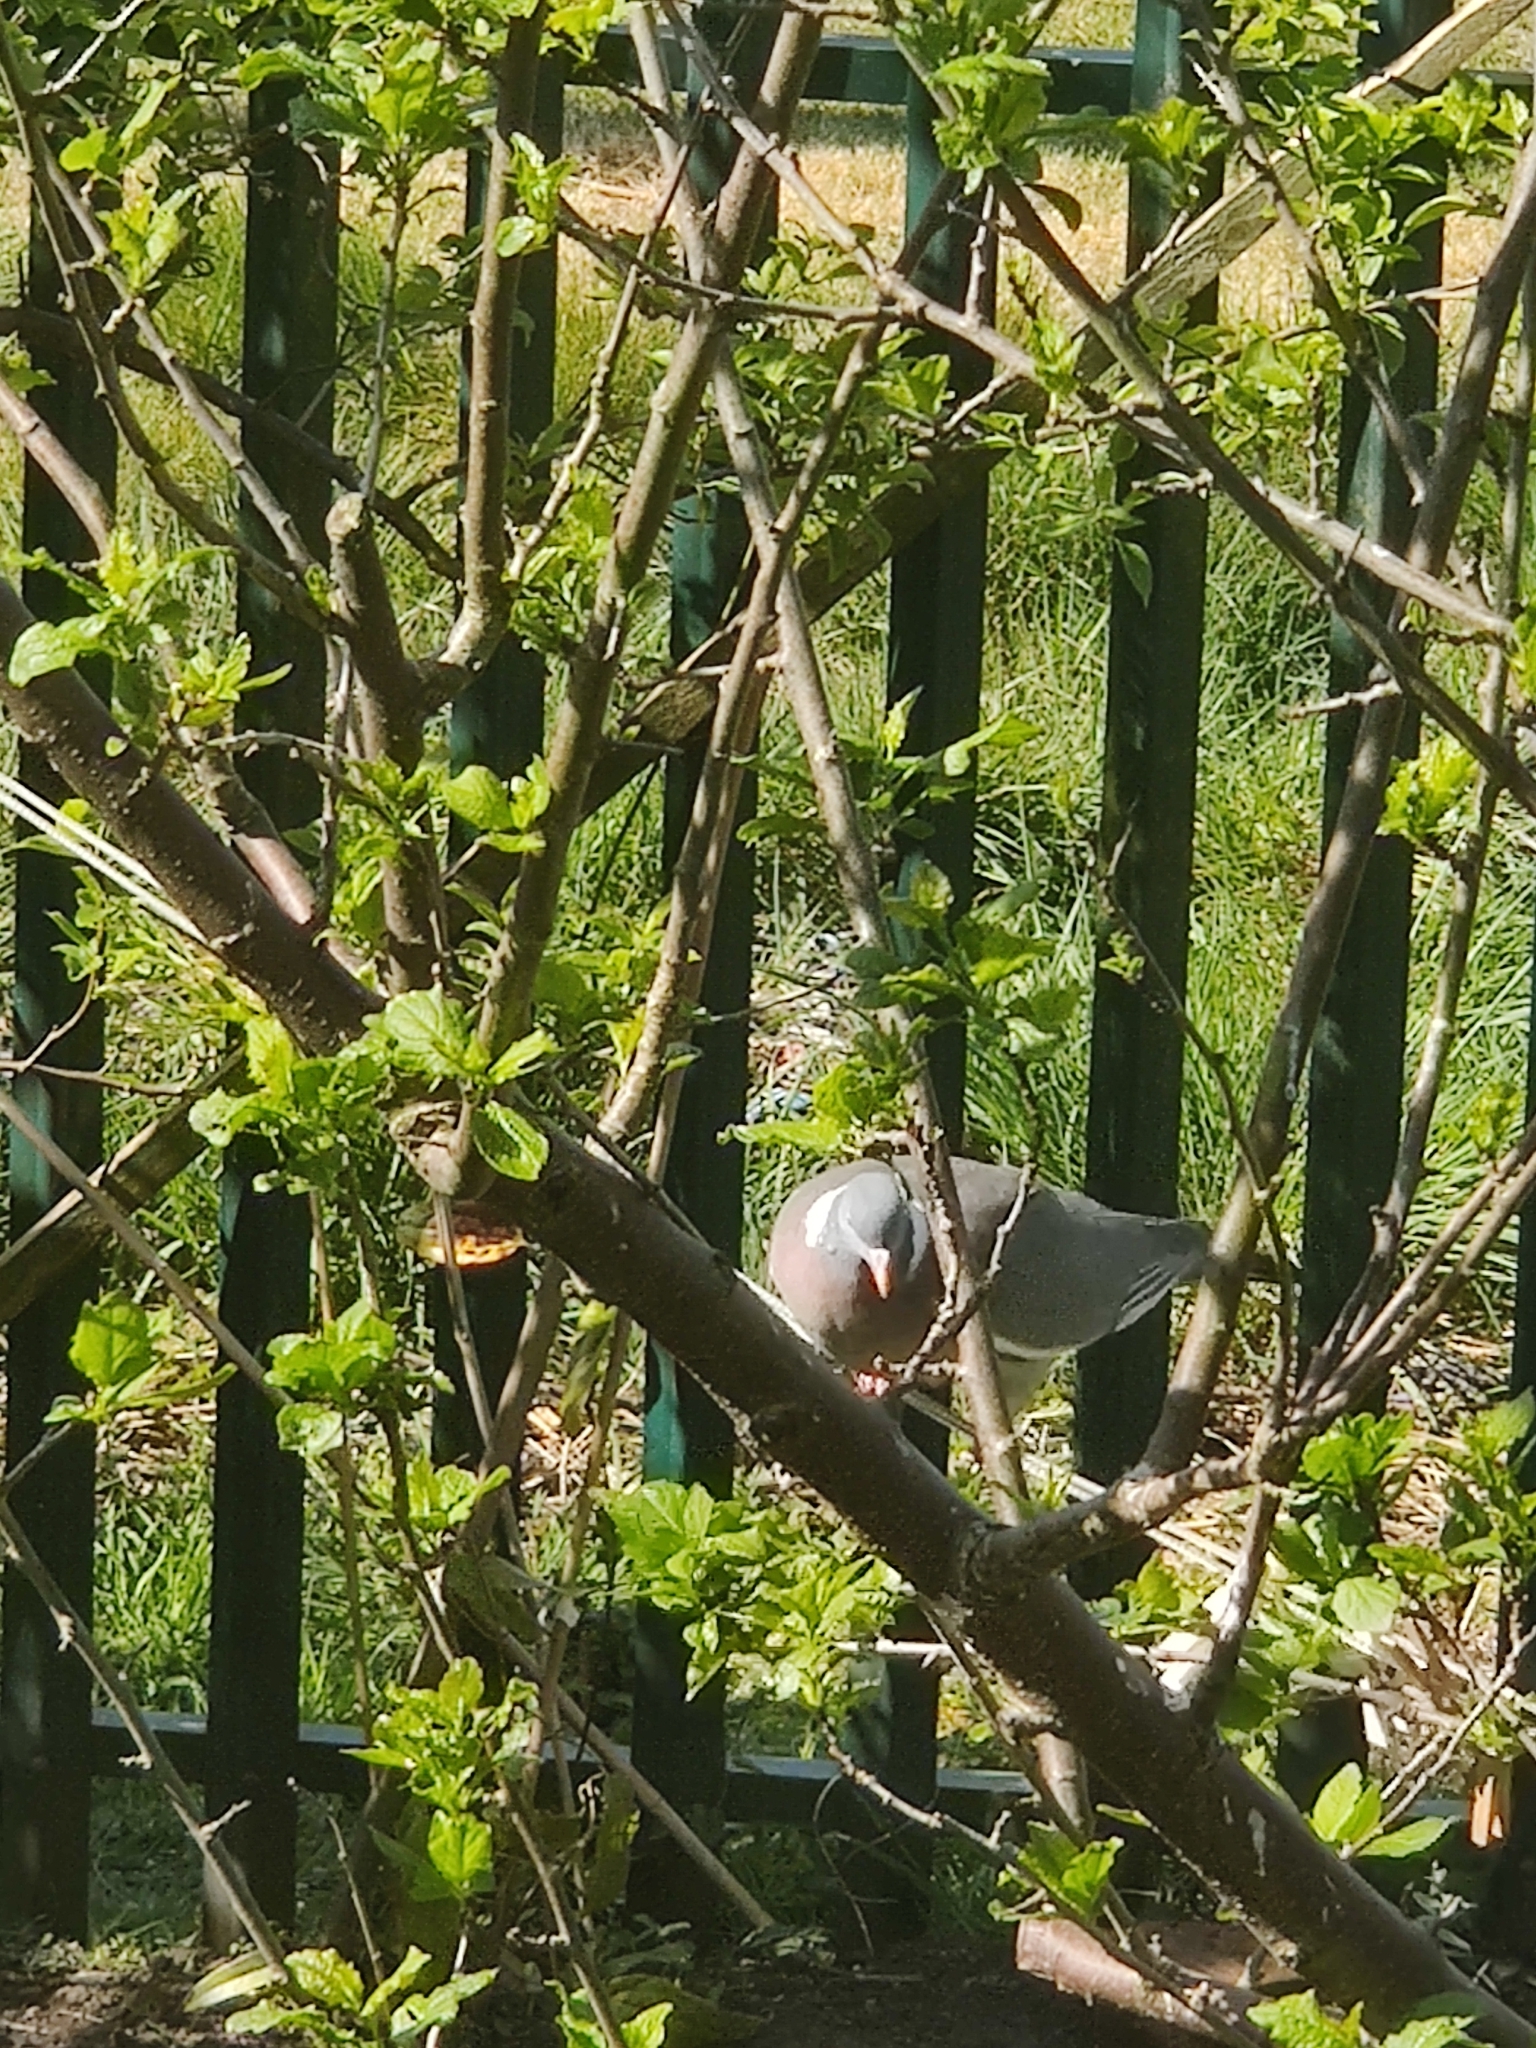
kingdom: Animalia
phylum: Chordata
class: Aves
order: Columbiformes
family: Columbidae
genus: Columba
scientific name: Columba palumbus
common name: Common wood pigeon
